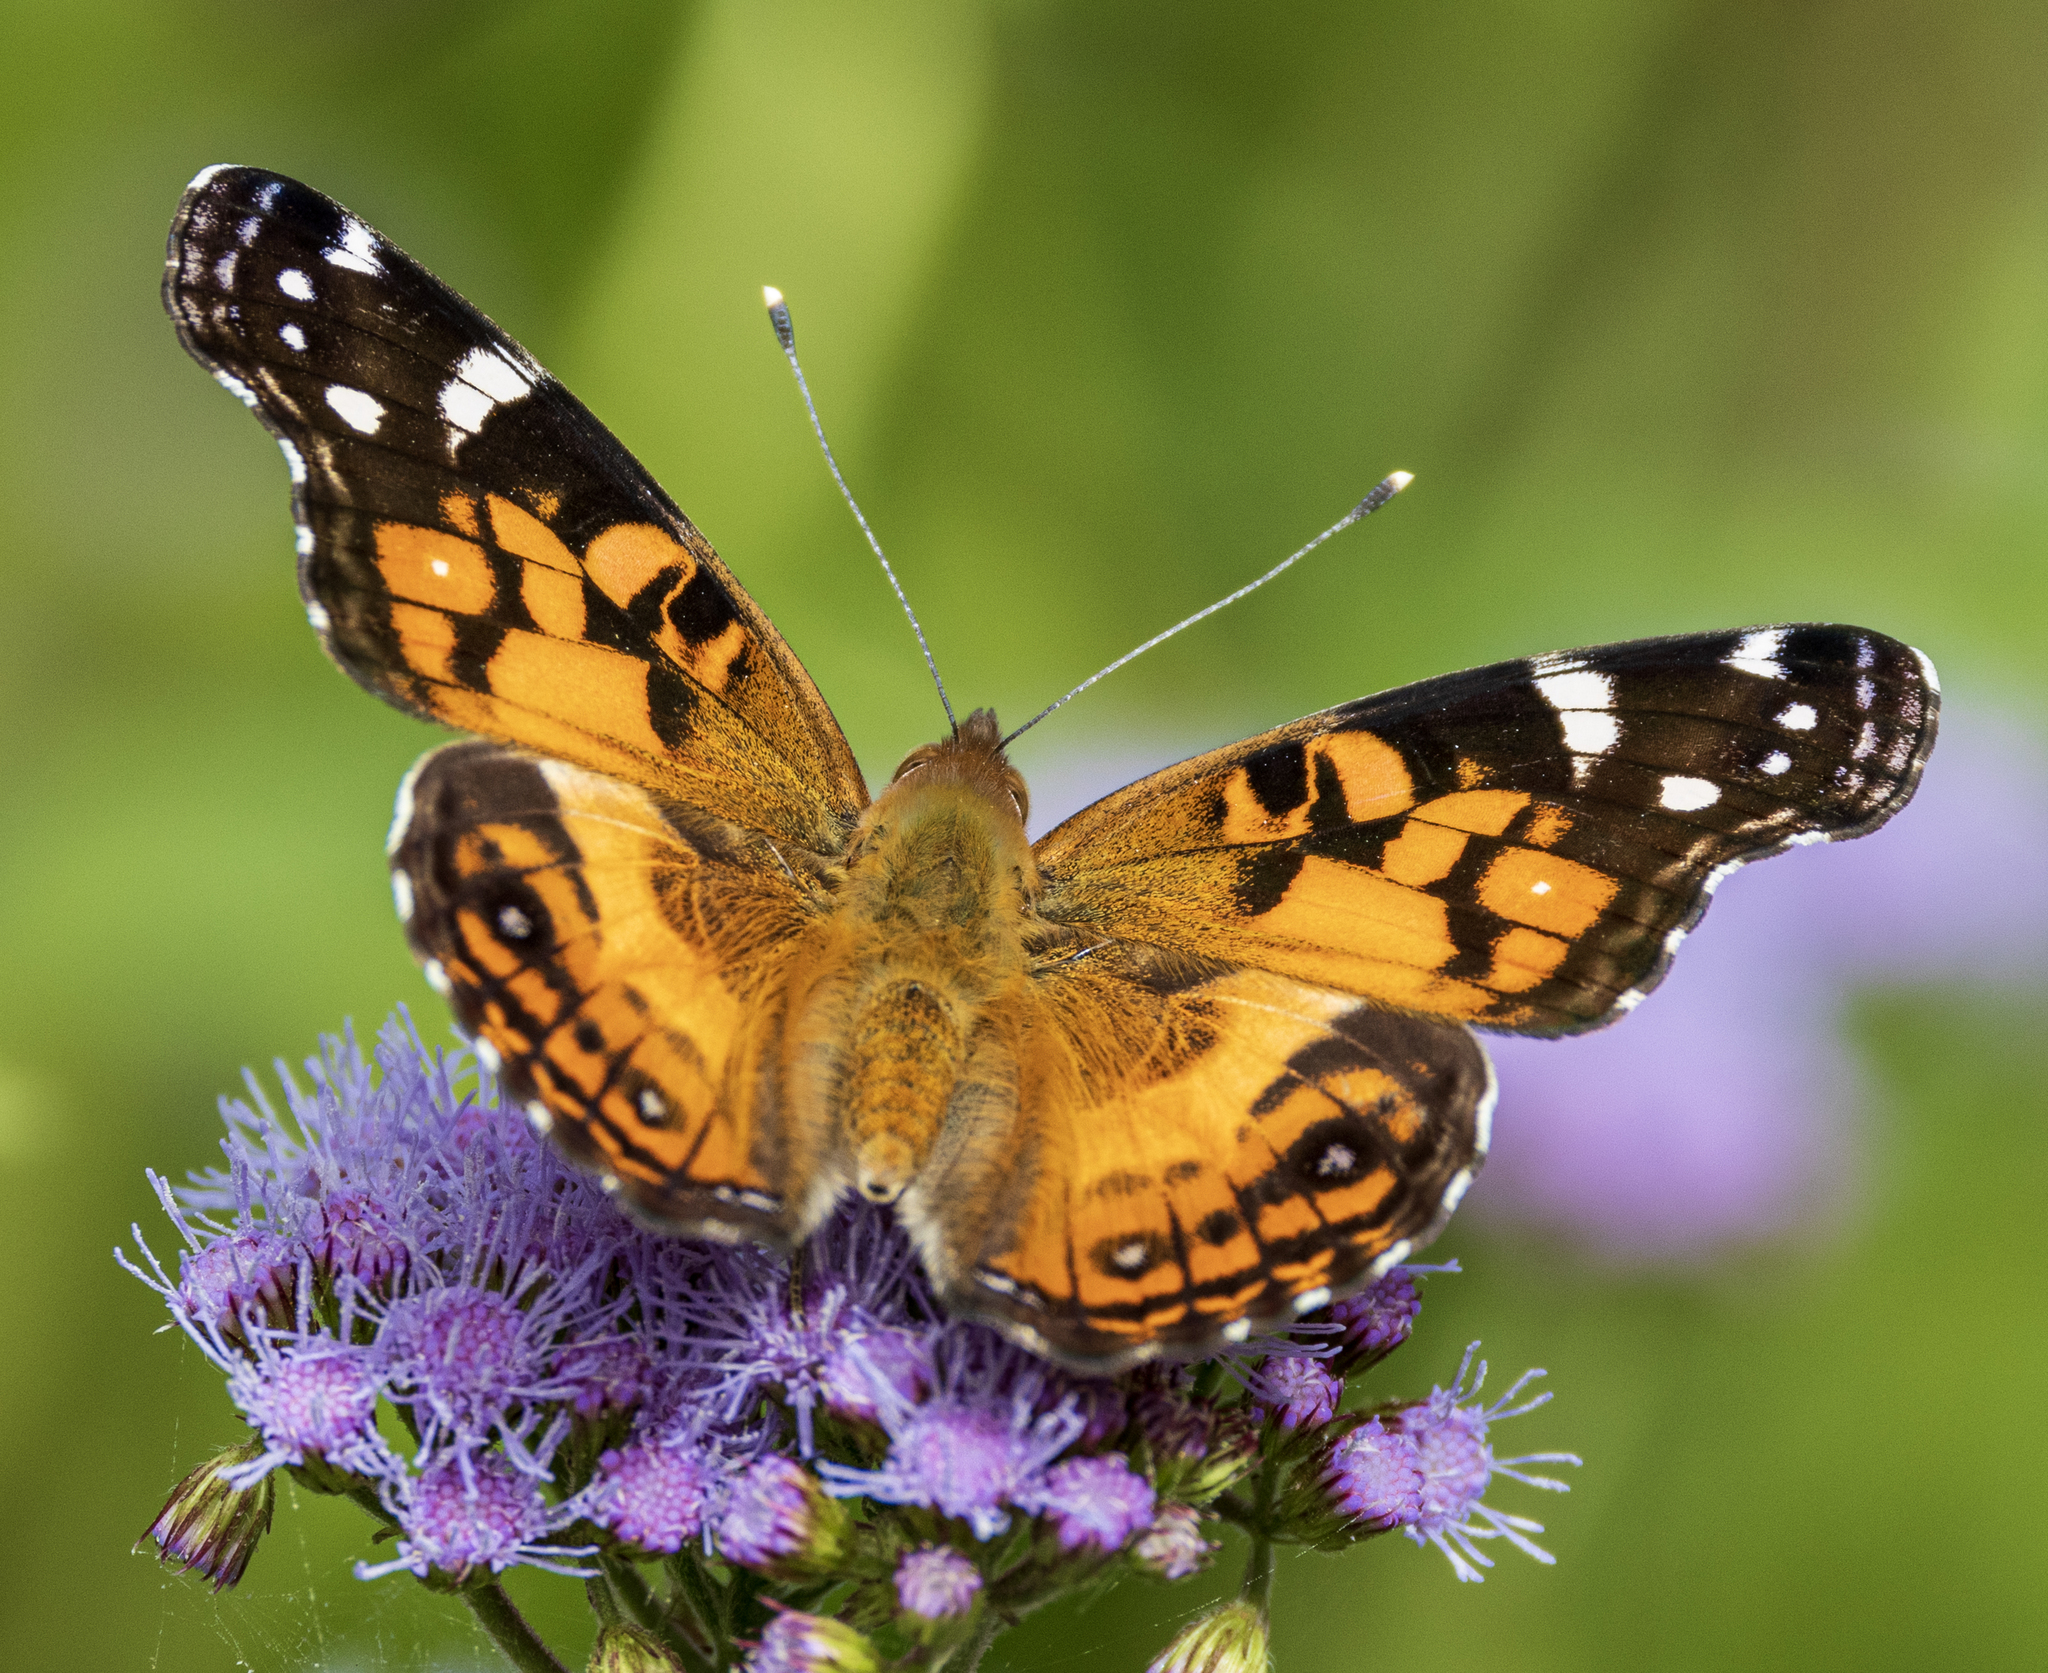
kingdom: Animalia
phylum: Arthropoda
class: Insecta
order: Lepidoptera
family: Nymphalidae
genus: Vanessa
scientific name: Vanessa virginiensis
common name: American lady
